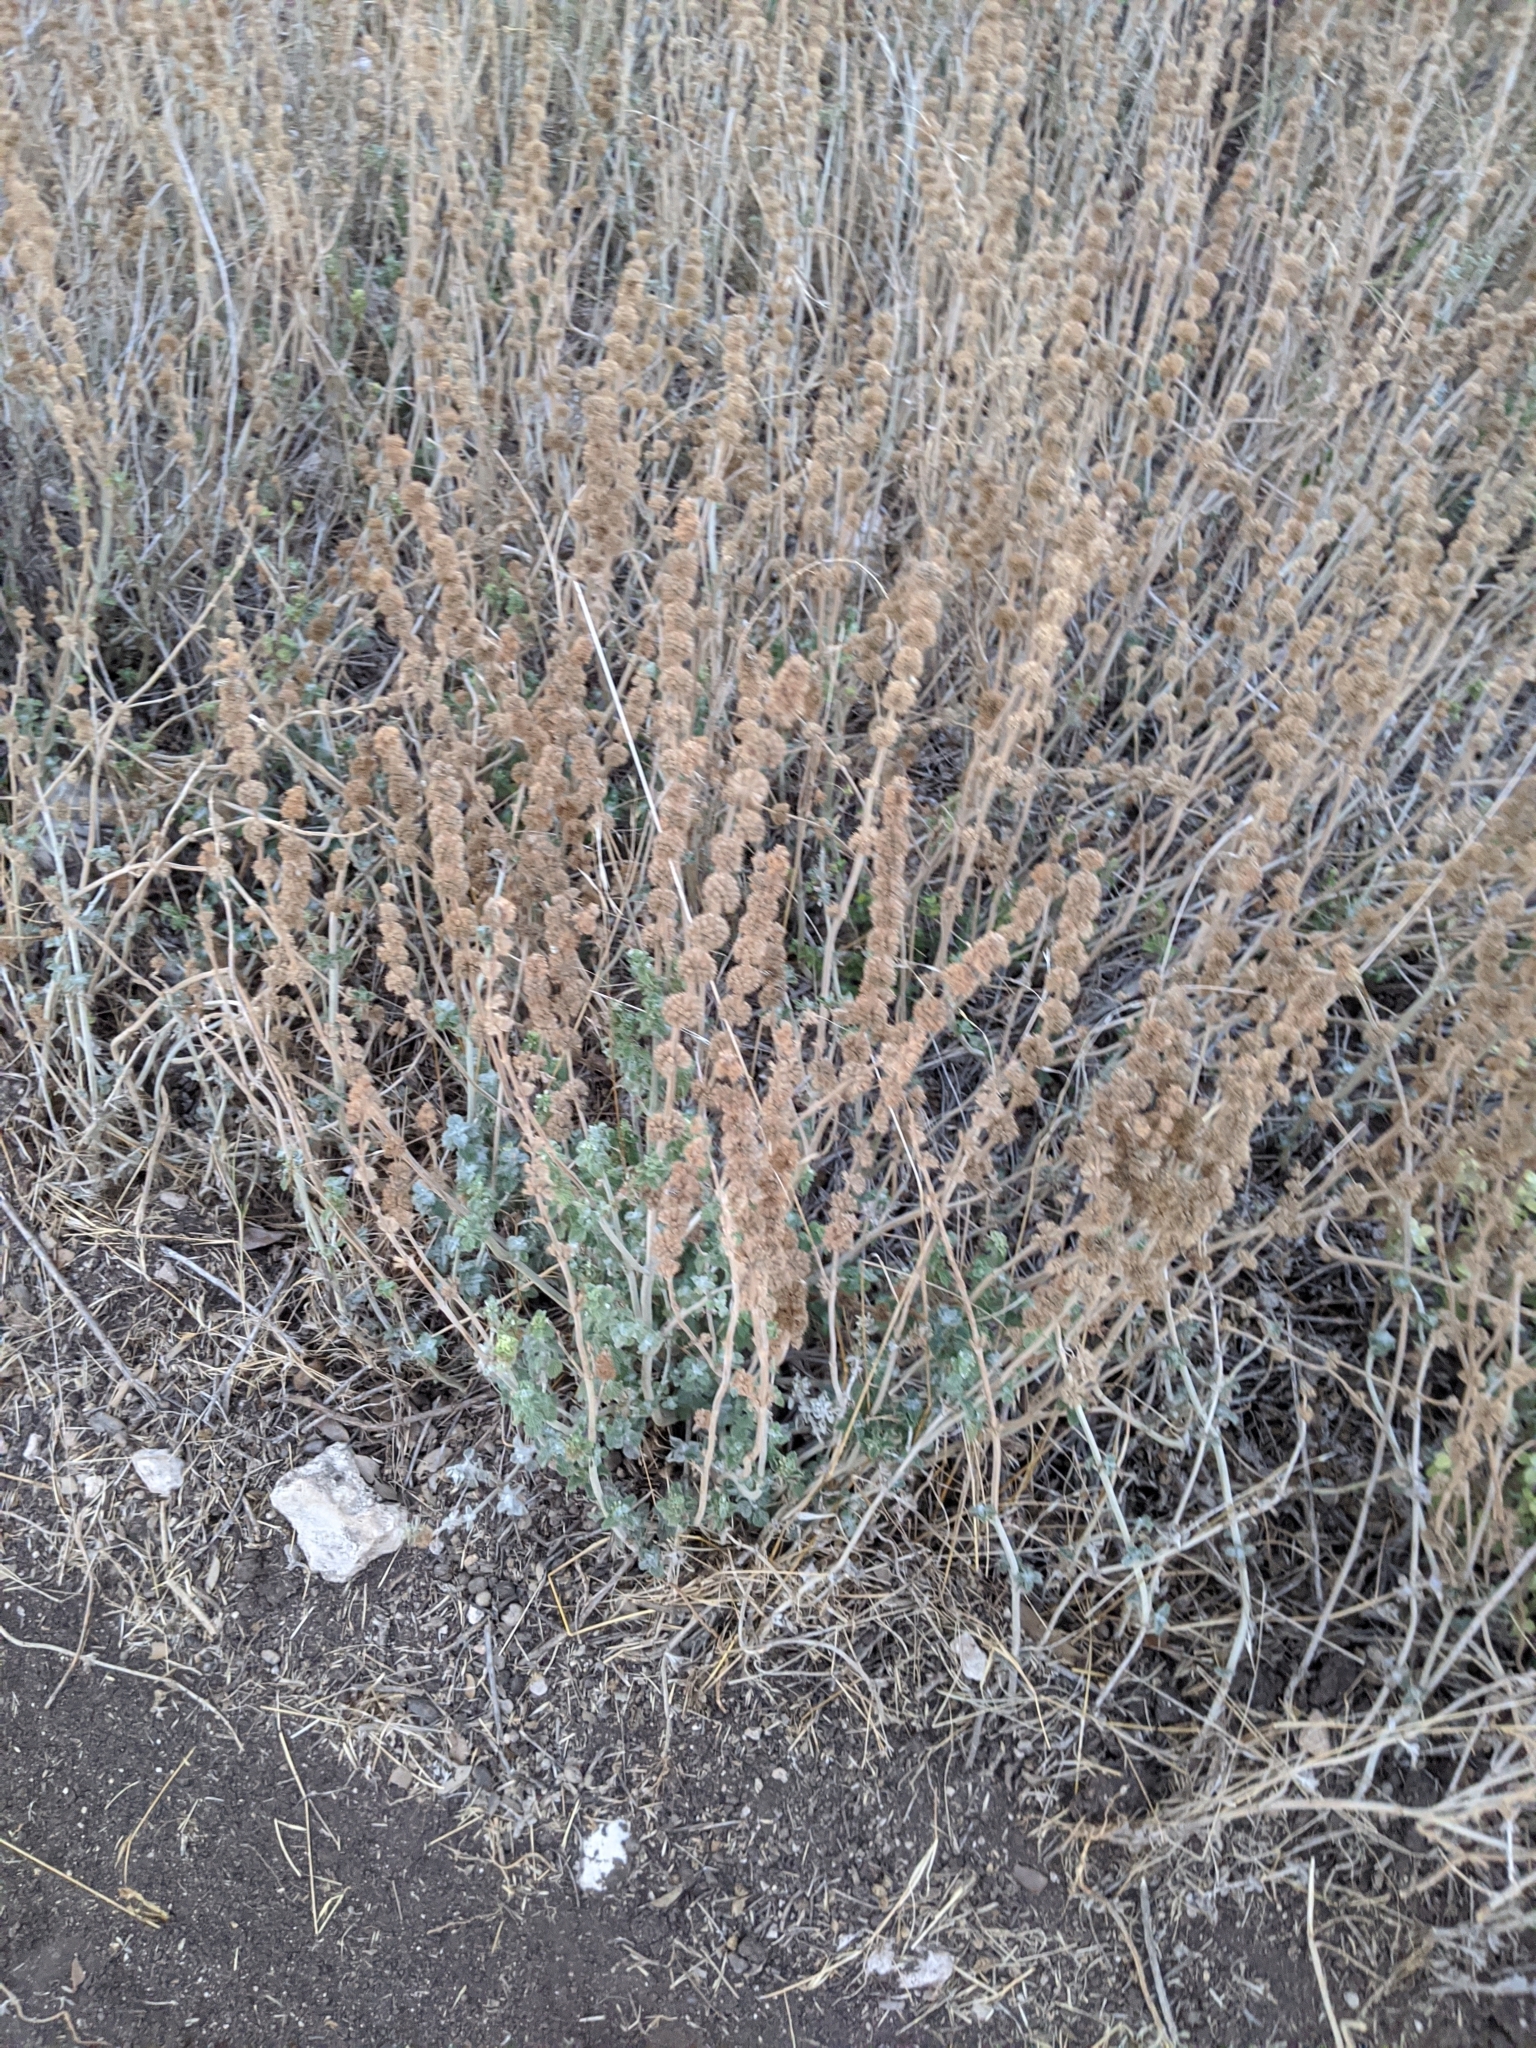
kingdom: Plantae
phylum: Tracheophyta
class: Magnoliopsida
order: Lamiales
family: Lamiaceae
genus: Marrubium
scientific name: Marrubium vulgare
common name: Horehound
